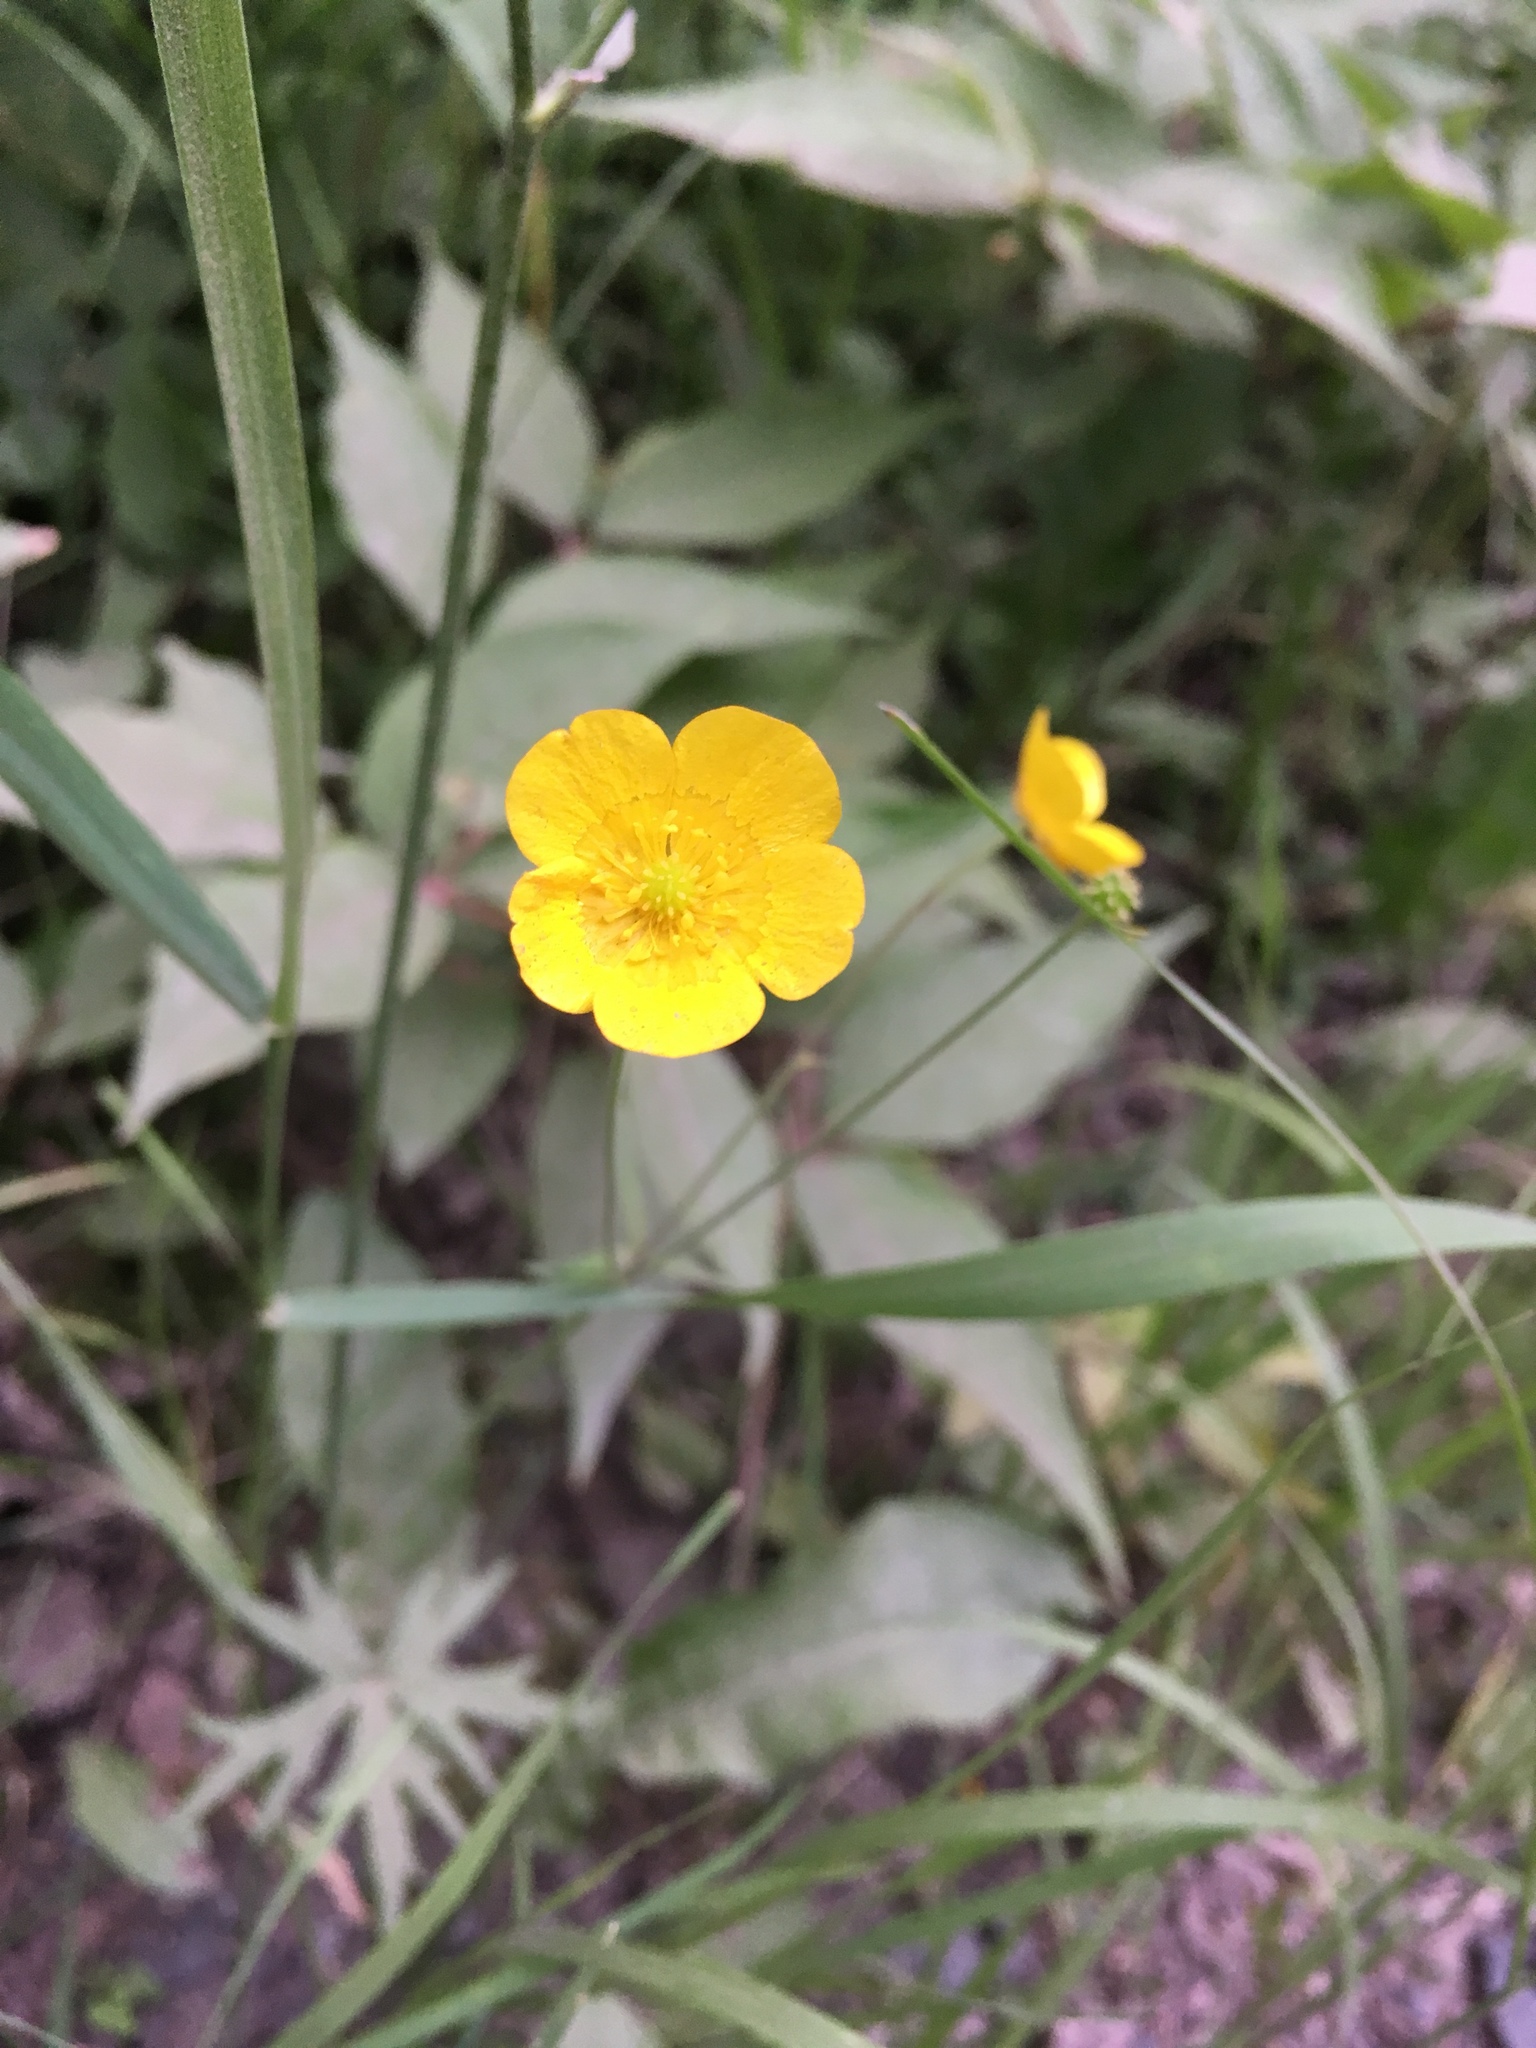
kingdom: Plantae
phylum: Tracheophyta
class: Magnoliopsida
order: Ranunculales
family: Ranunculaceae
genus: Ranunculus
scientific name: Ranunculus acris
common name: Meadow buttercup
